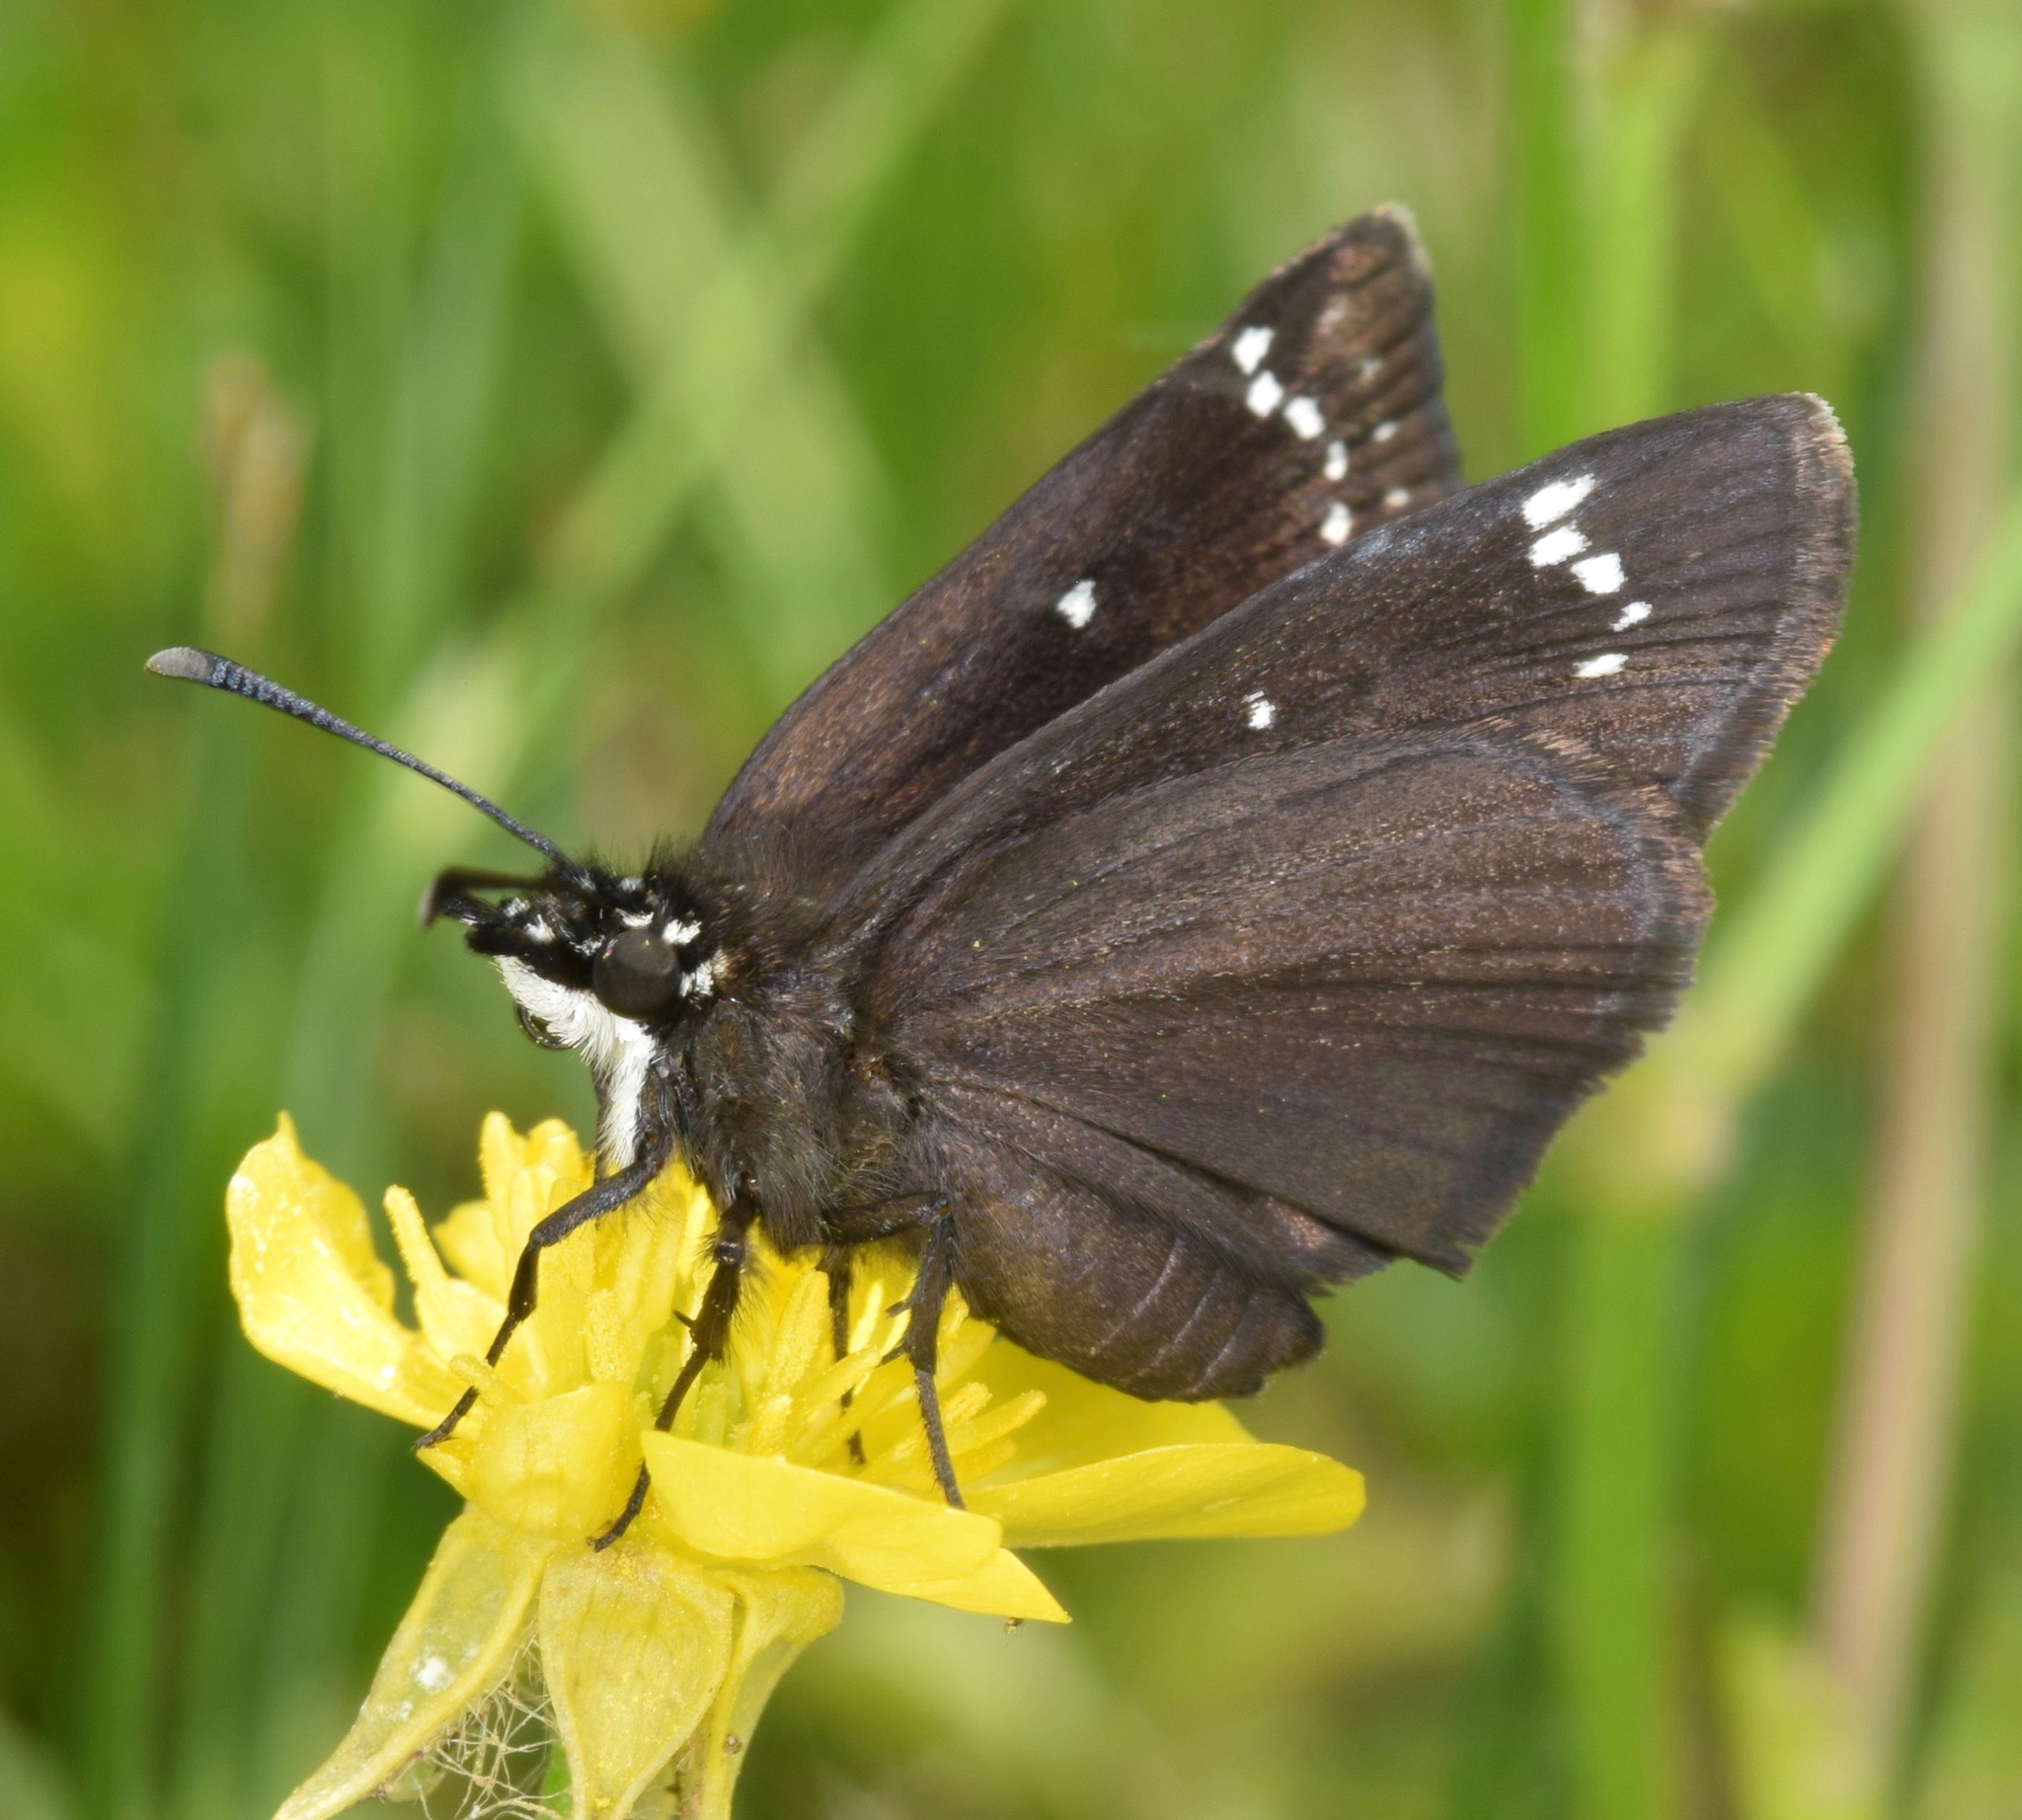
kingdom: Animalia
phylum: Arthropoda
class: Insecta
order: Lepidoptera
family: Hesperiidae
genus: Pholisora
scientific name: Pholisora catullus
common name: Common sootywing
